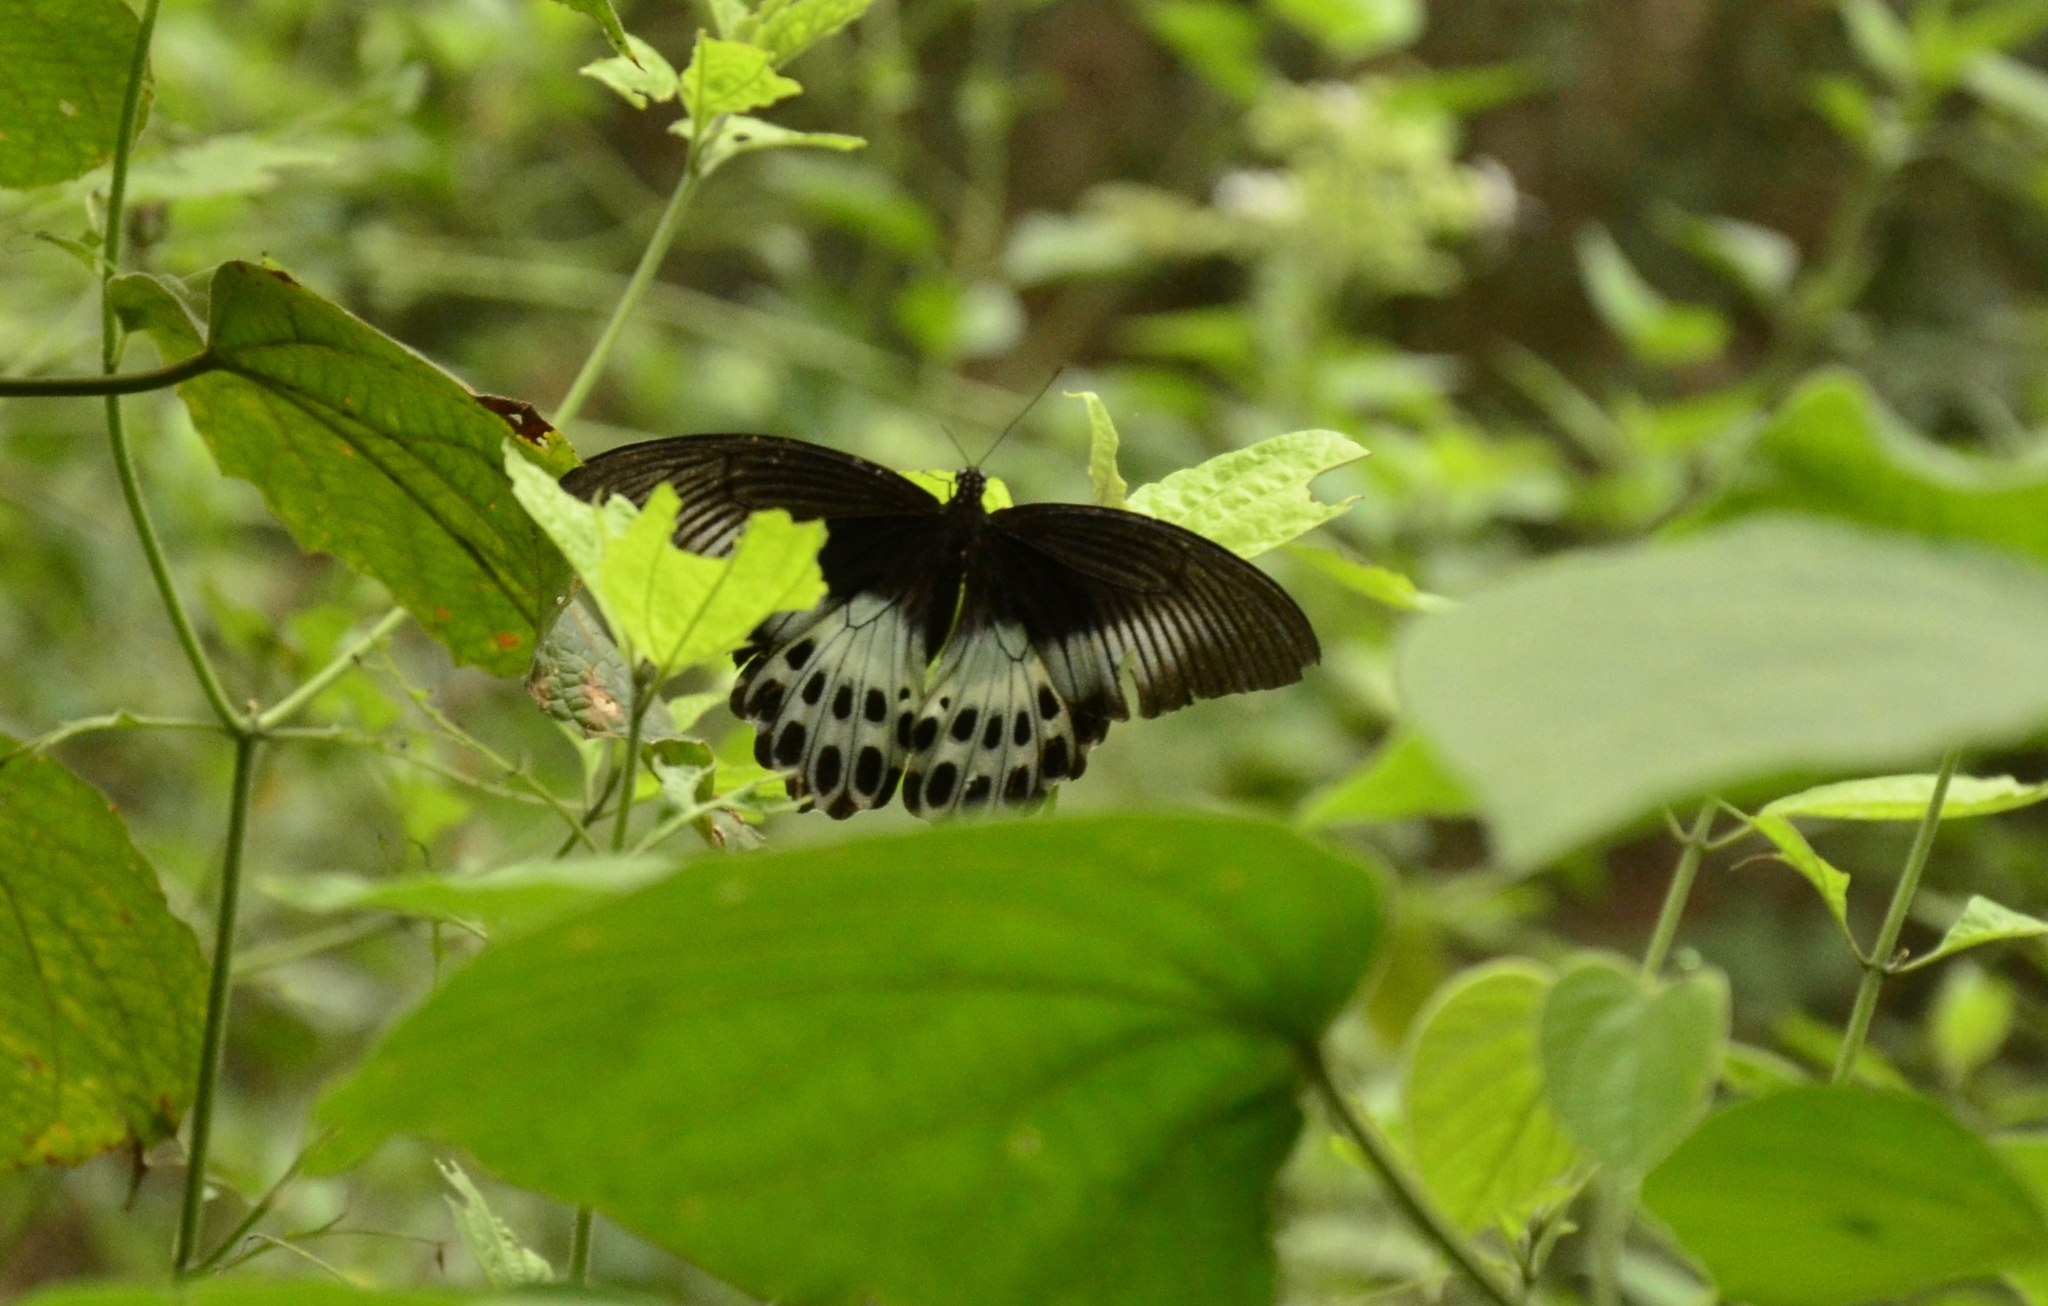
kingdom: Animalia
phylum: Arthropoda
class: Insecta
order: Lepidoptera
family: Papilionidae
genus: Papilio
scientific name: Papilio memnon
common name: Great mormon
